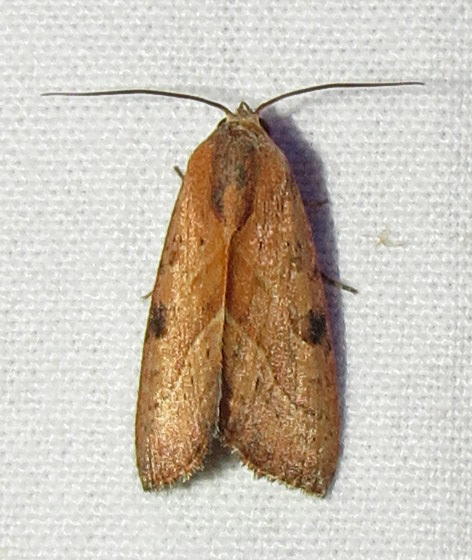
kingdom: Animalia
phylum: Arthropoda
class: Insecta
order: Lepidoptera
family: Noctuidae
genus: Galgula
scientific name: Galgula partita
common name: Wedgeling
